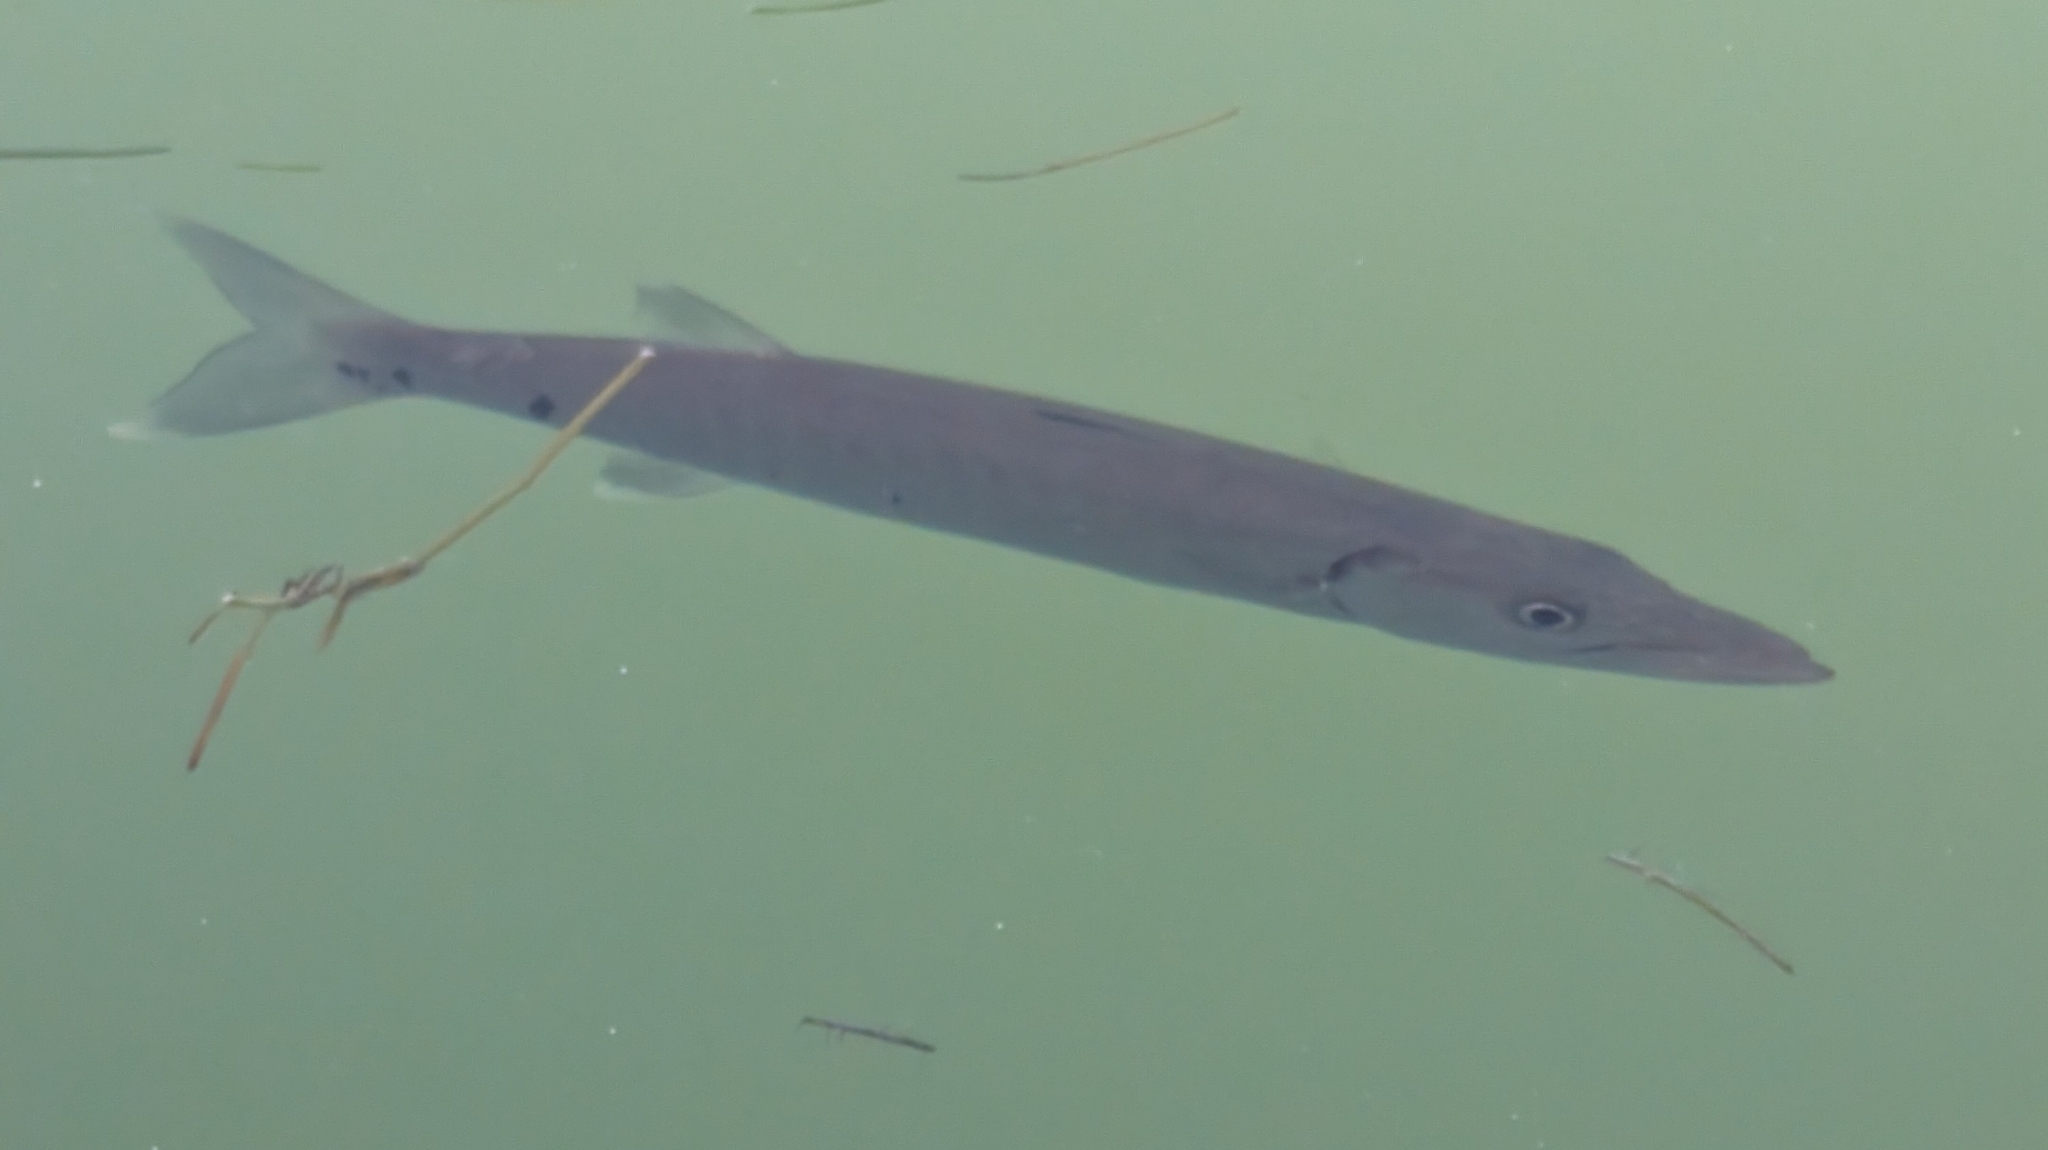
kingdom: Animalia
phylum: Chordata
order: Perciformes
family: Sphyraenidae
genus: Sphyraena
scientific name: Sphyraena barracuda
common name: Great barracuda
